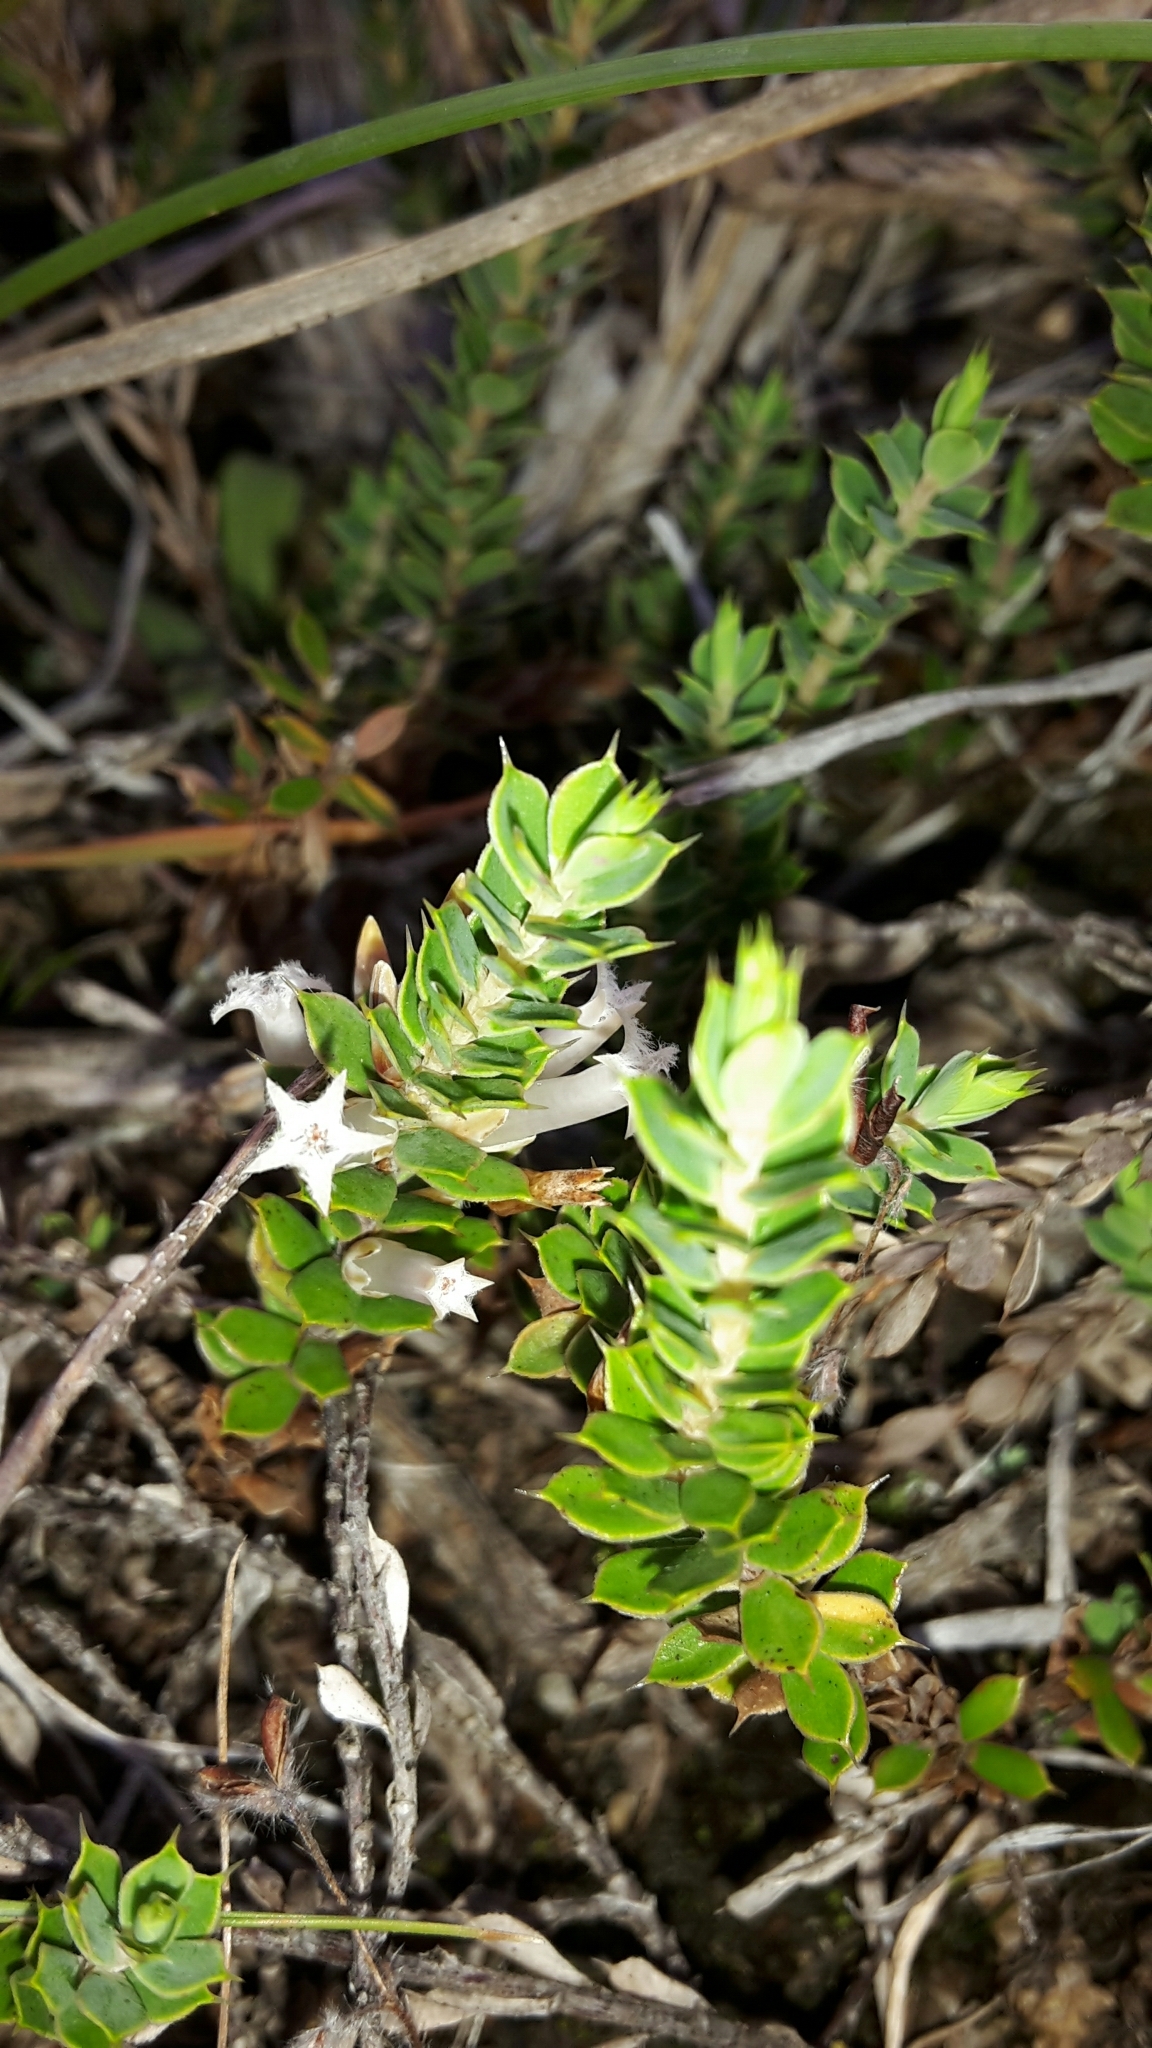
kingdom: Plantae
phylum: Tracheophyta
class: Magnoliopsida
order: Ericales
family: Ericaceae
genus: Styphelia
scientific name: Styphelia nesophila
